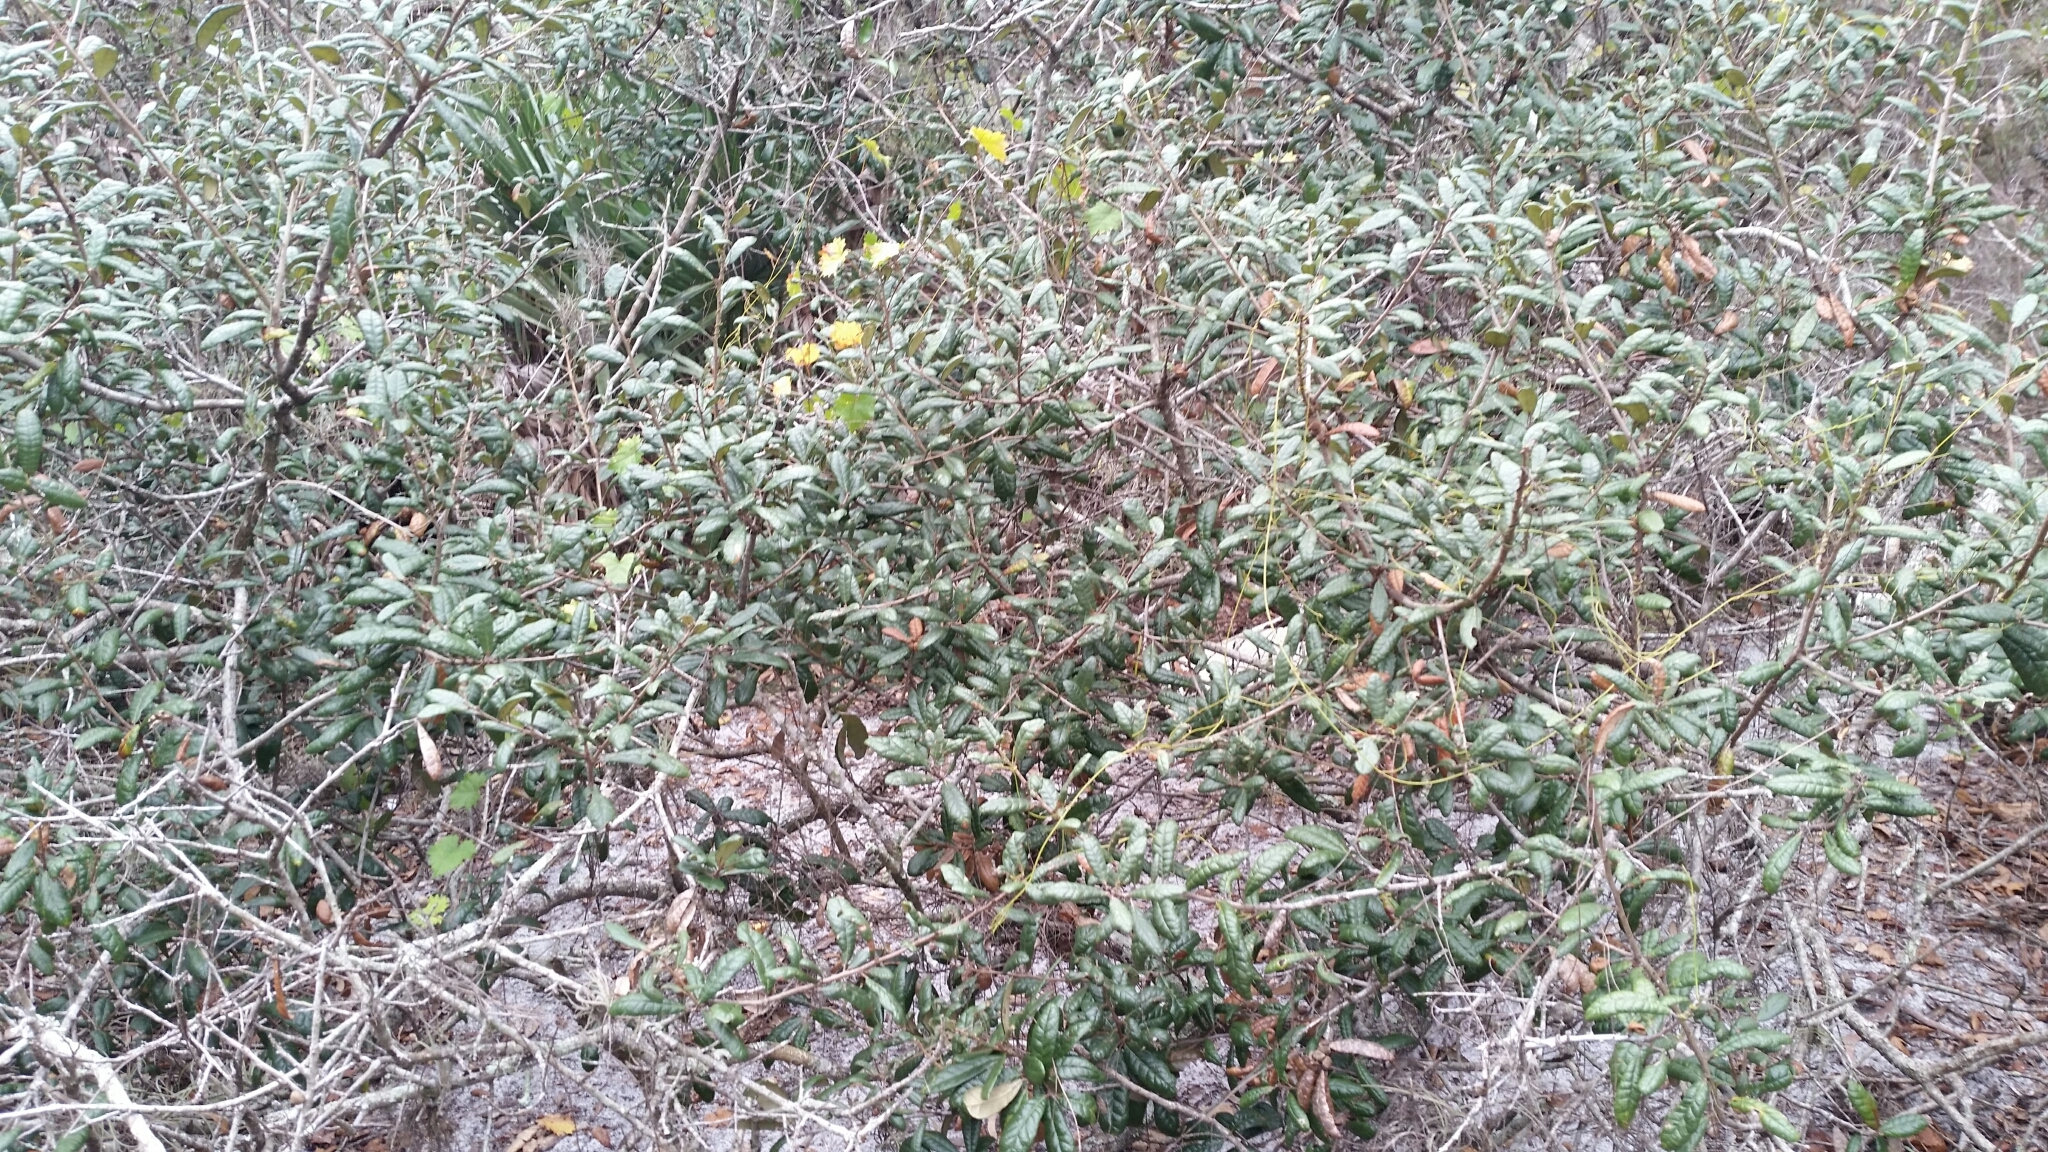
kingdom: Plantae
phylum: Tracheophyta
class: Magnoliopsida
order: Fagales
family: Fagaceae
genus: Quercus
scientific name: Quercus geminata
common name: Sand live oak
